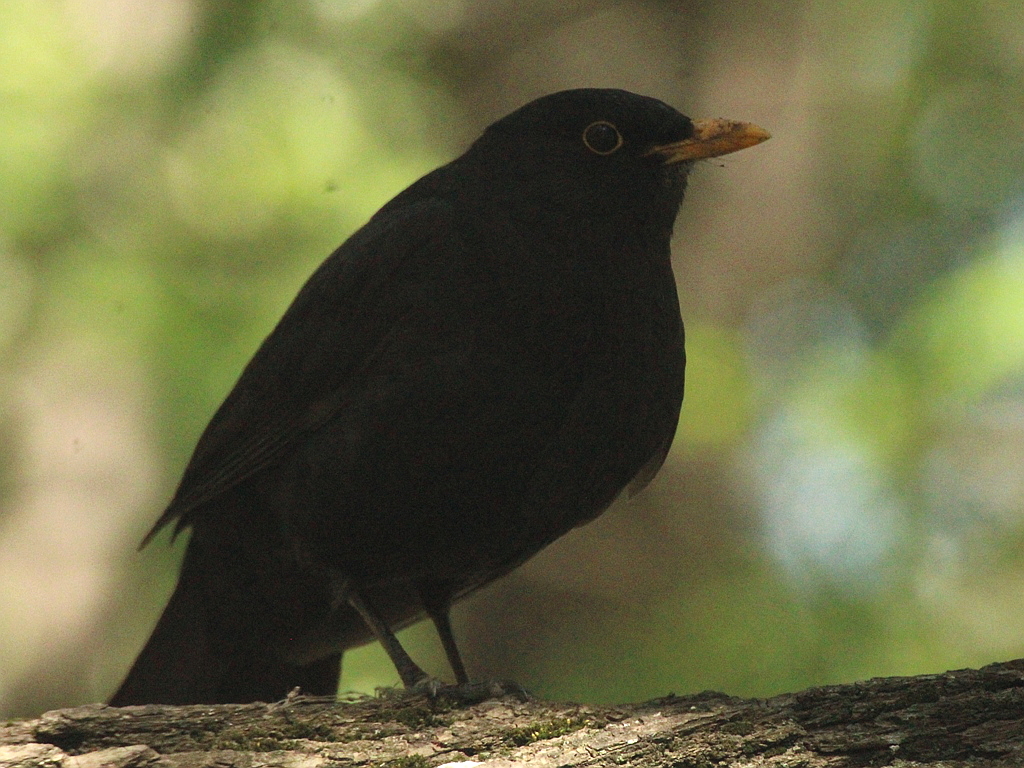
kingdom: Animalia
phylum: Chordata
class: Aves
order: Passeriformes
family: Turdidae
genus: Turdus
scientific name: Turdus merula
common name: Common blackbird
